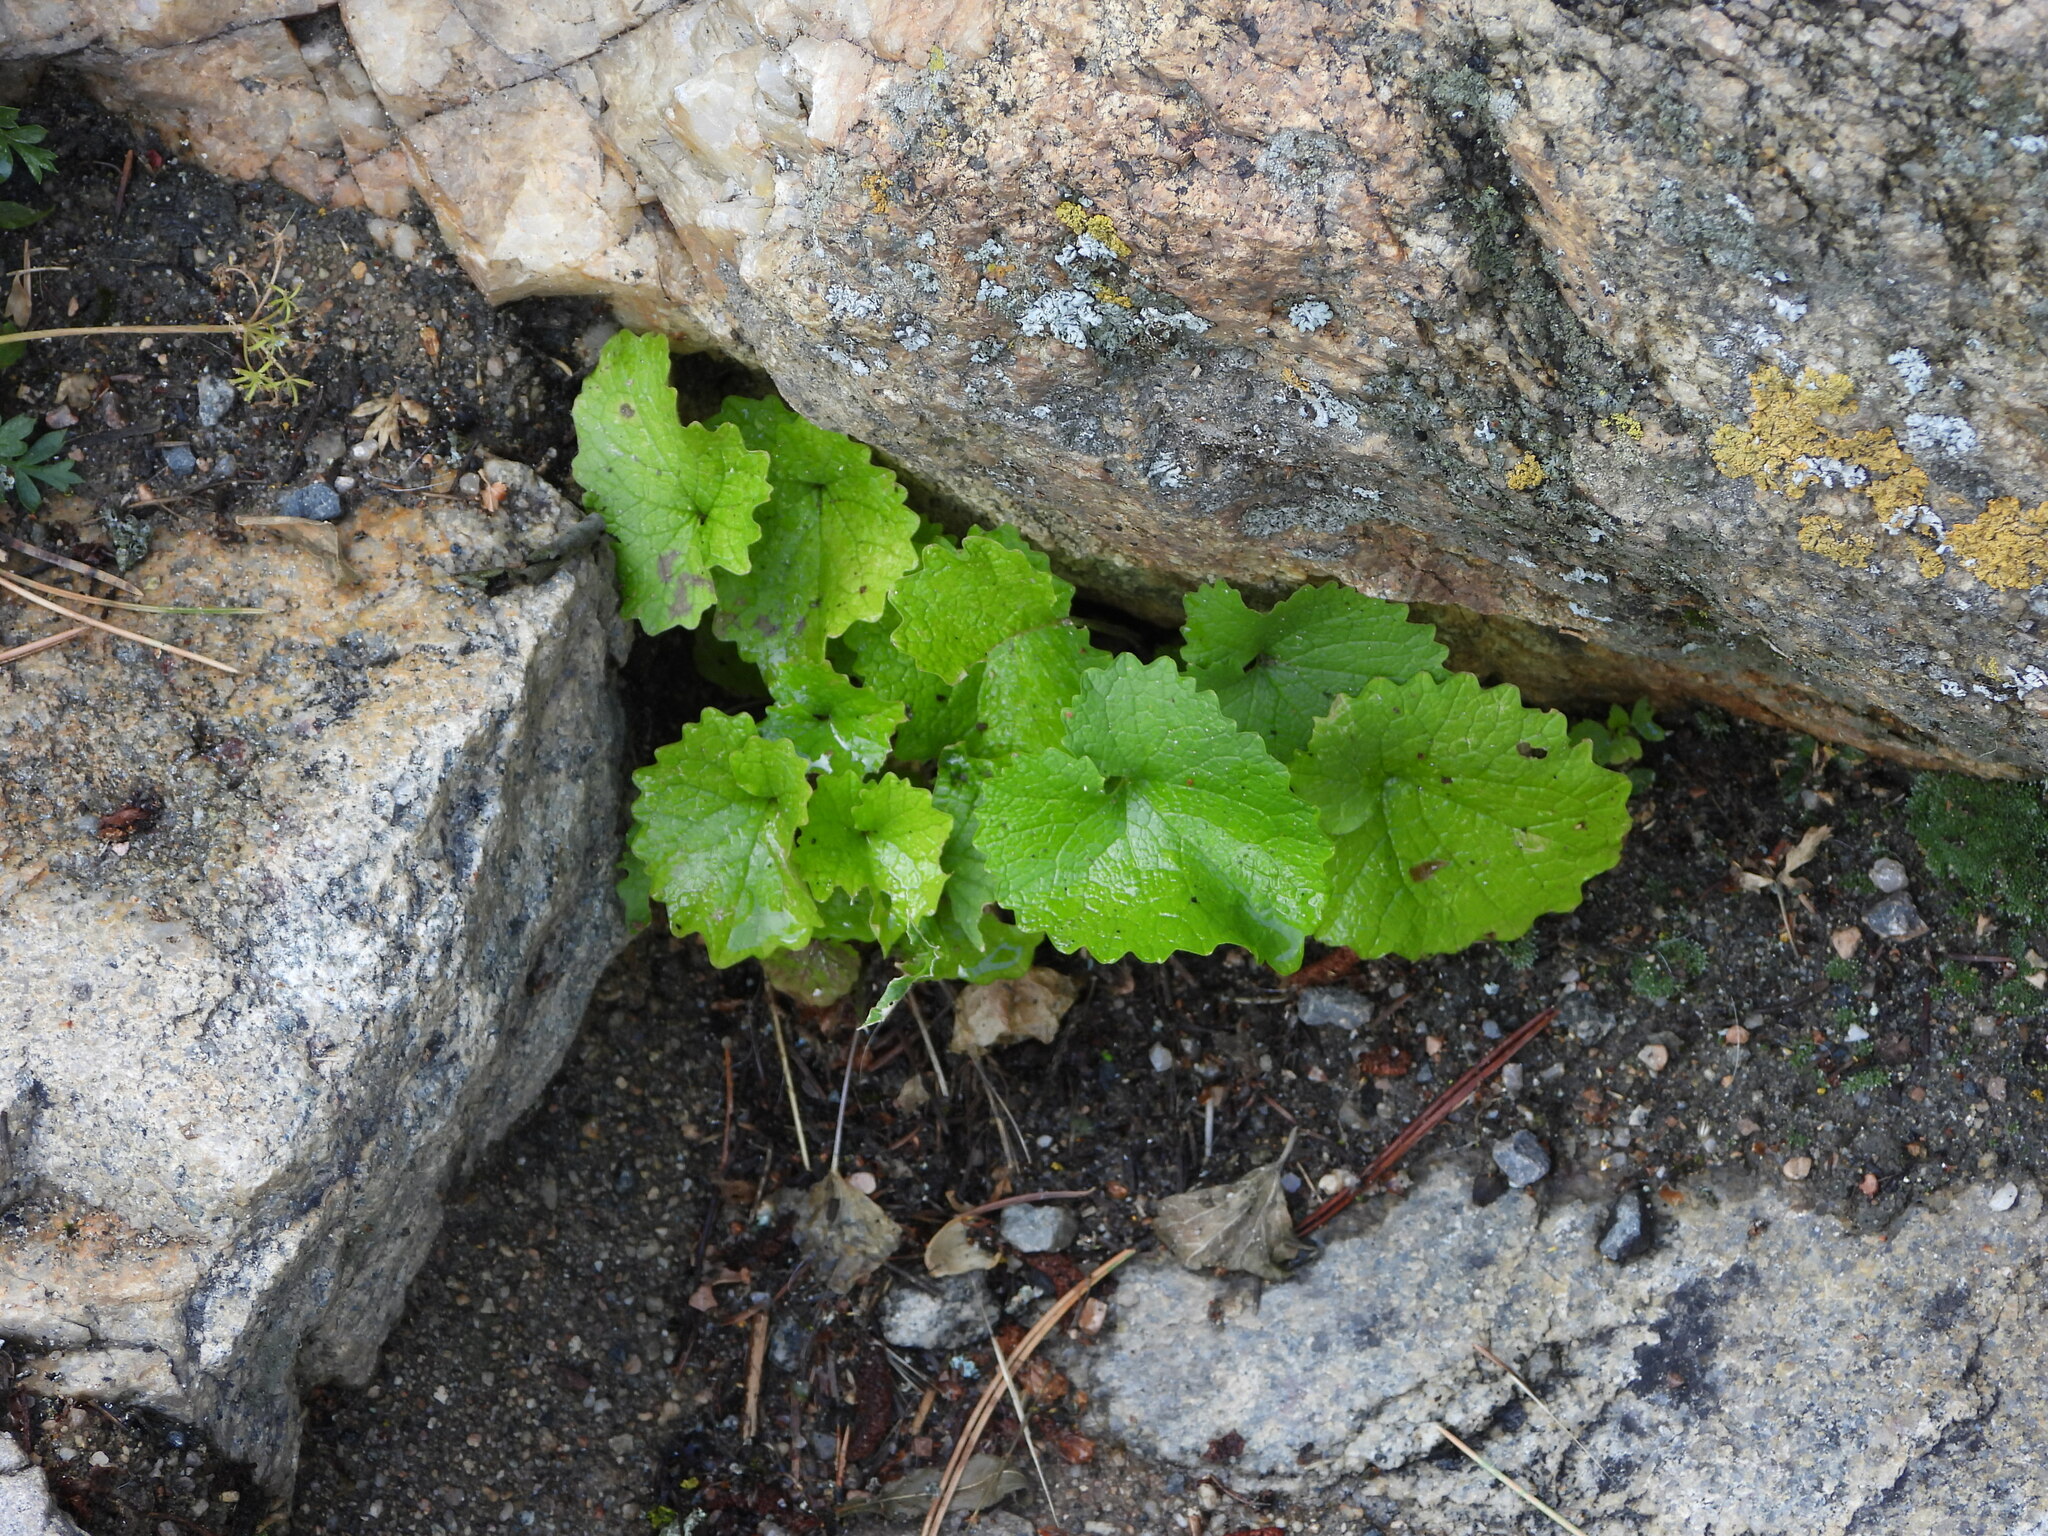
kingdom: Plantae
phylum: Tracheophyta
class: Magnoliopsida
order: Brassicales
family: Brassicaceae
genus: Alliaria
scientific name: Alliaria petiolata
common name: Garlic mustard
